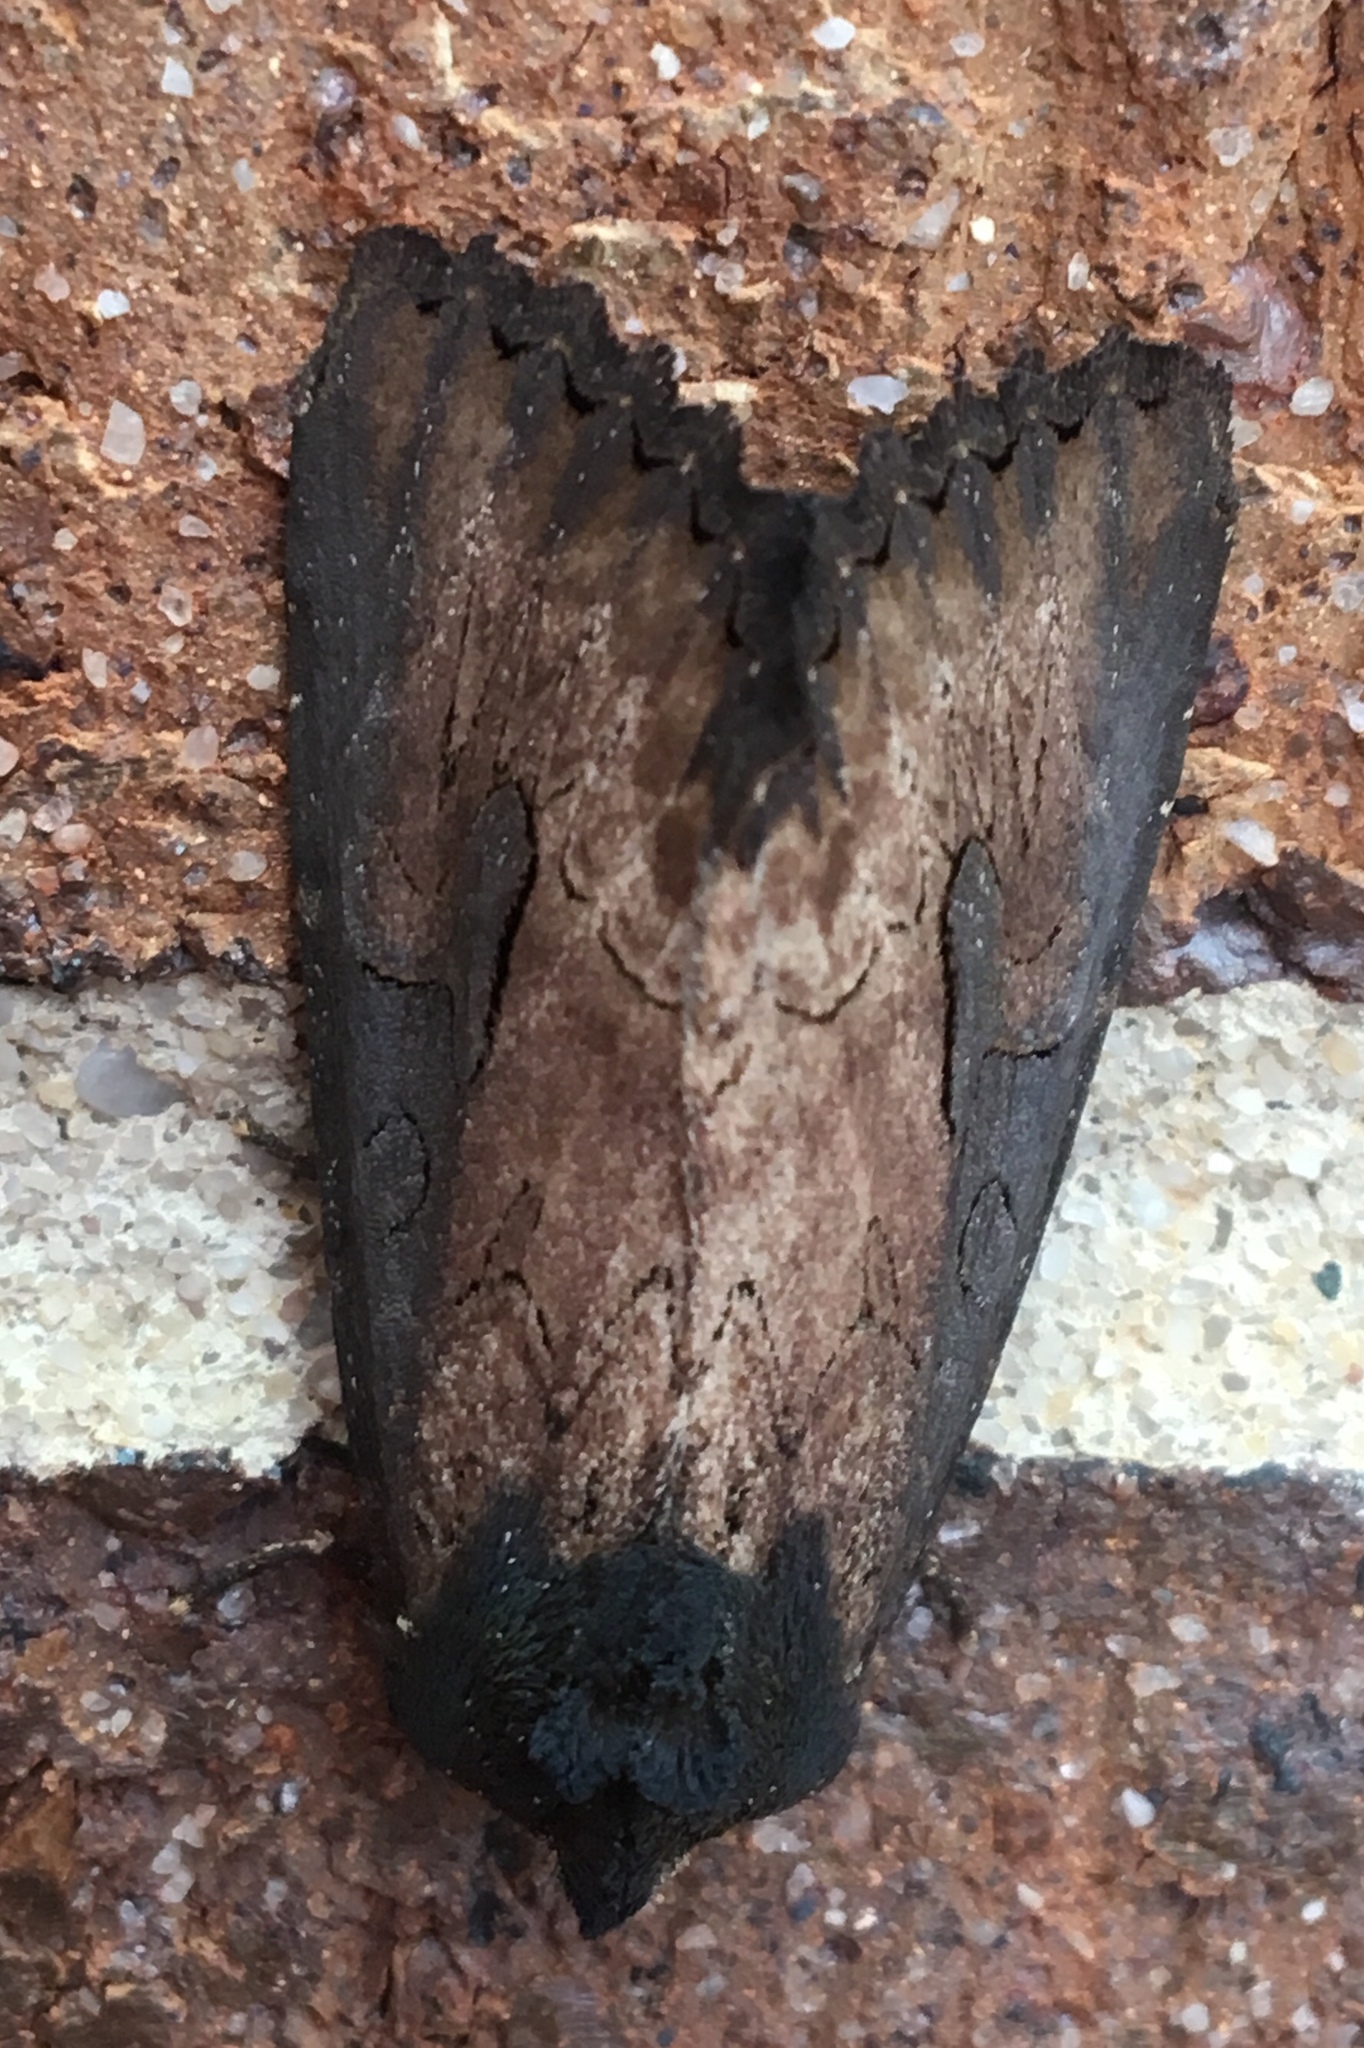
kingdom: Animalia
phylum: Arthropoda
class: Insecta
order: Lepidoptera
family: Noctuidae
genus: Macronoctua
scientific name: Macronoctua onusta
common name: Iris borer
